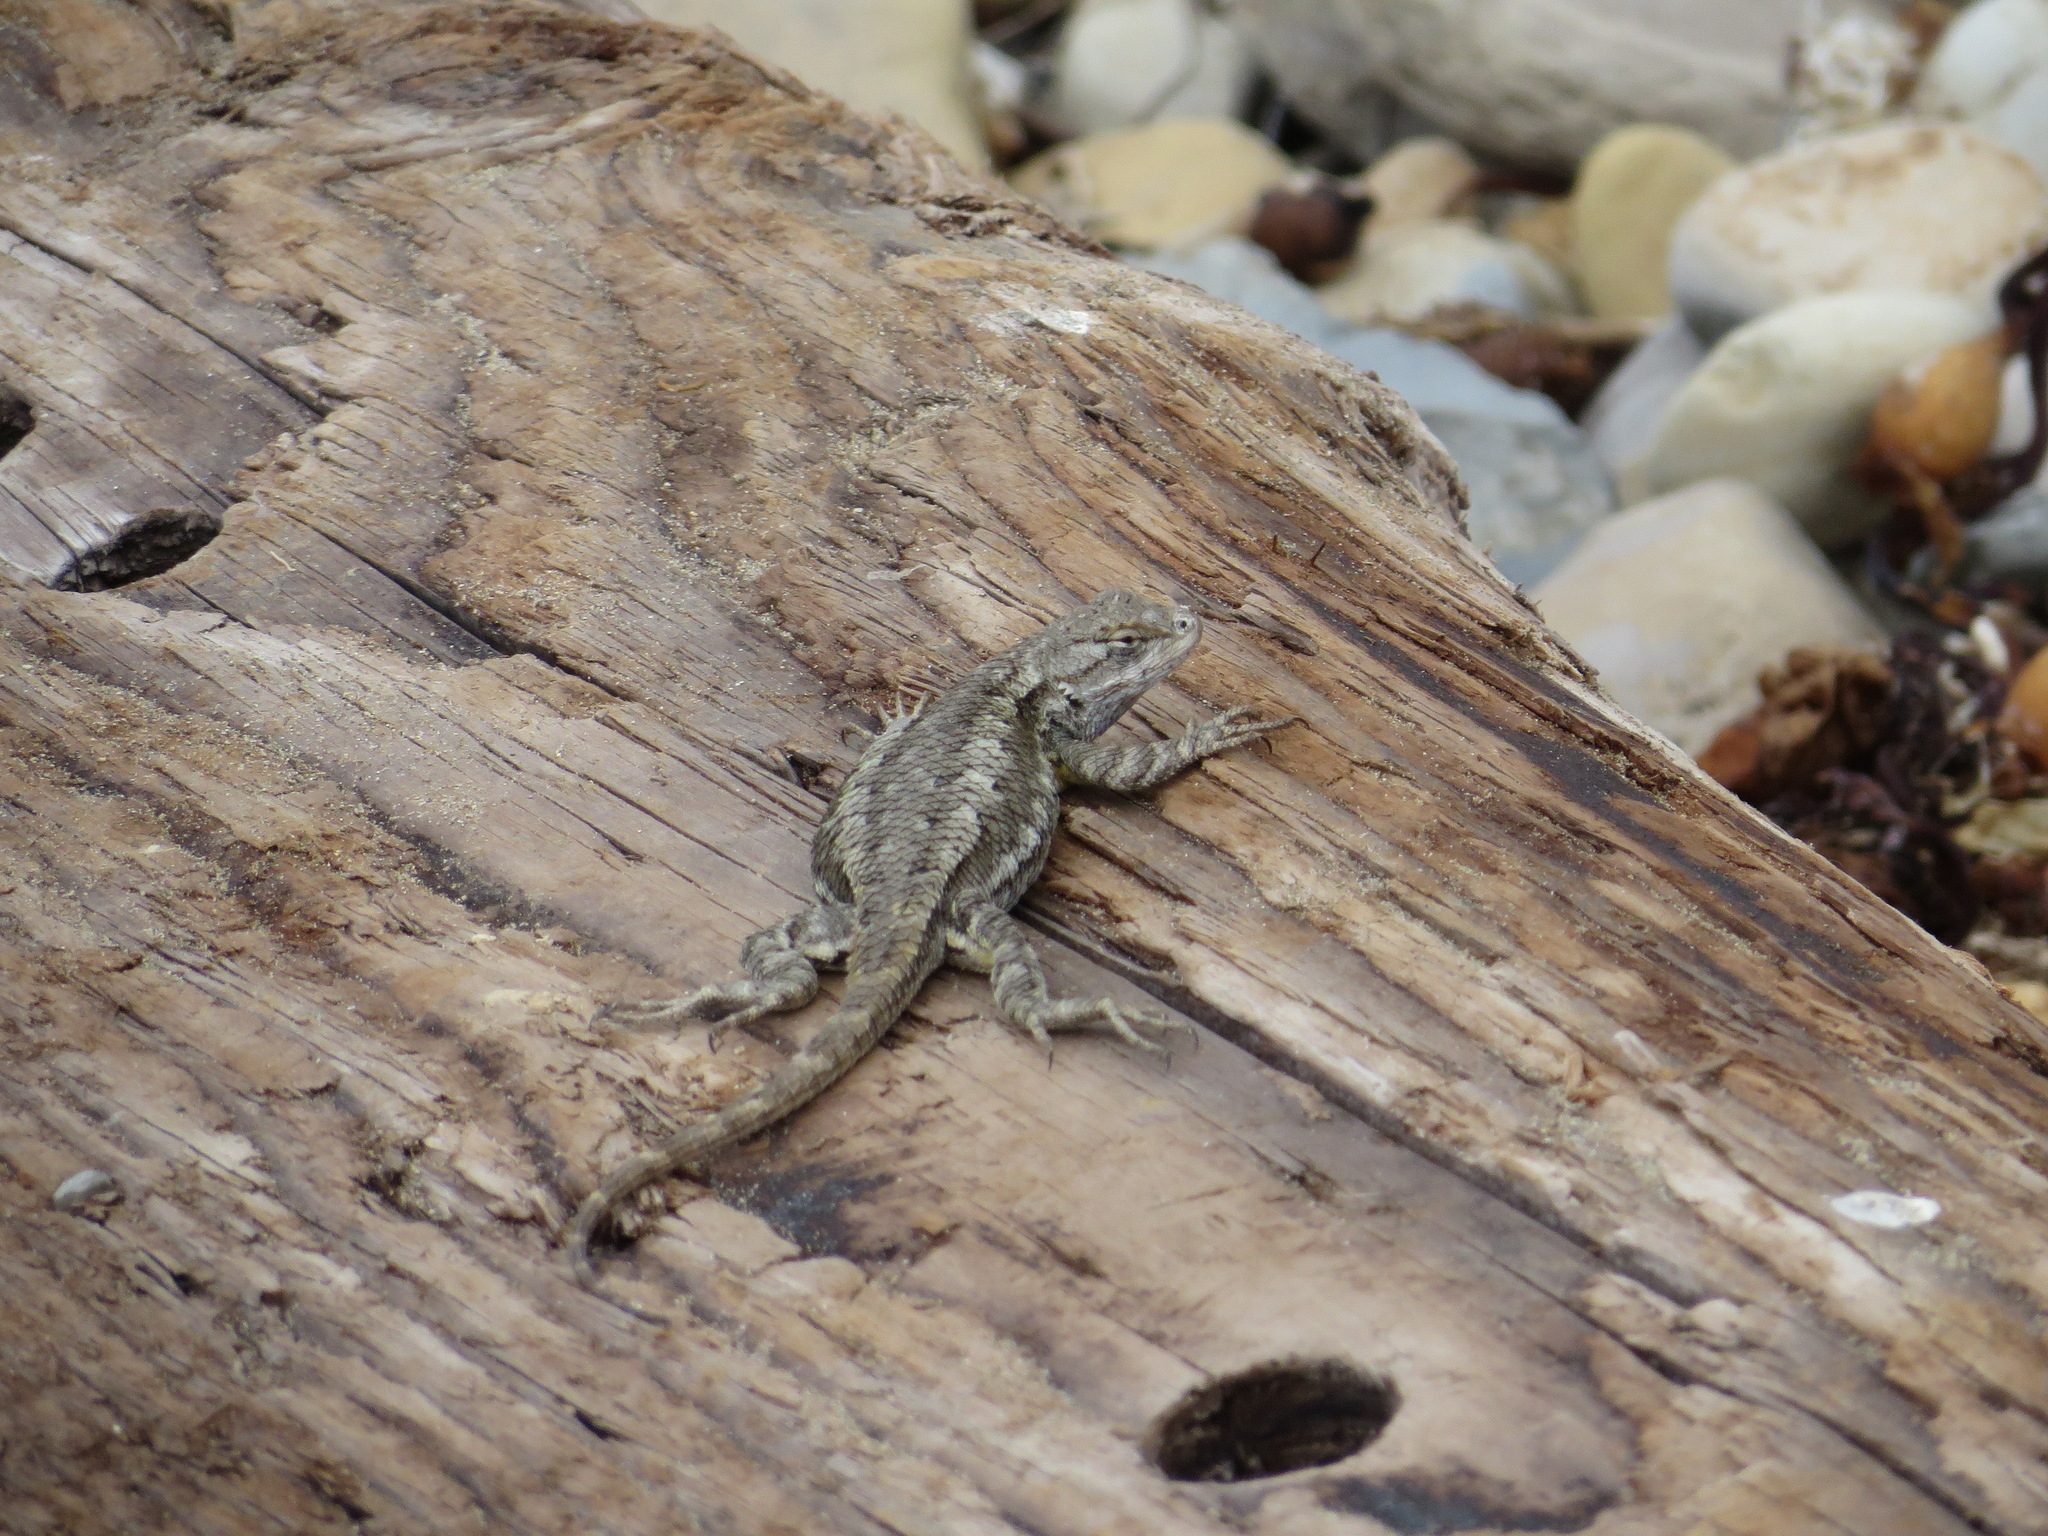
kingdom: Animalia
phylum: Chordata
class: Squamata
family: Phrynosomatidae
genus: Sceloporus
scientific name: Sceloporus occidentalis
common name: Western fence lizard
